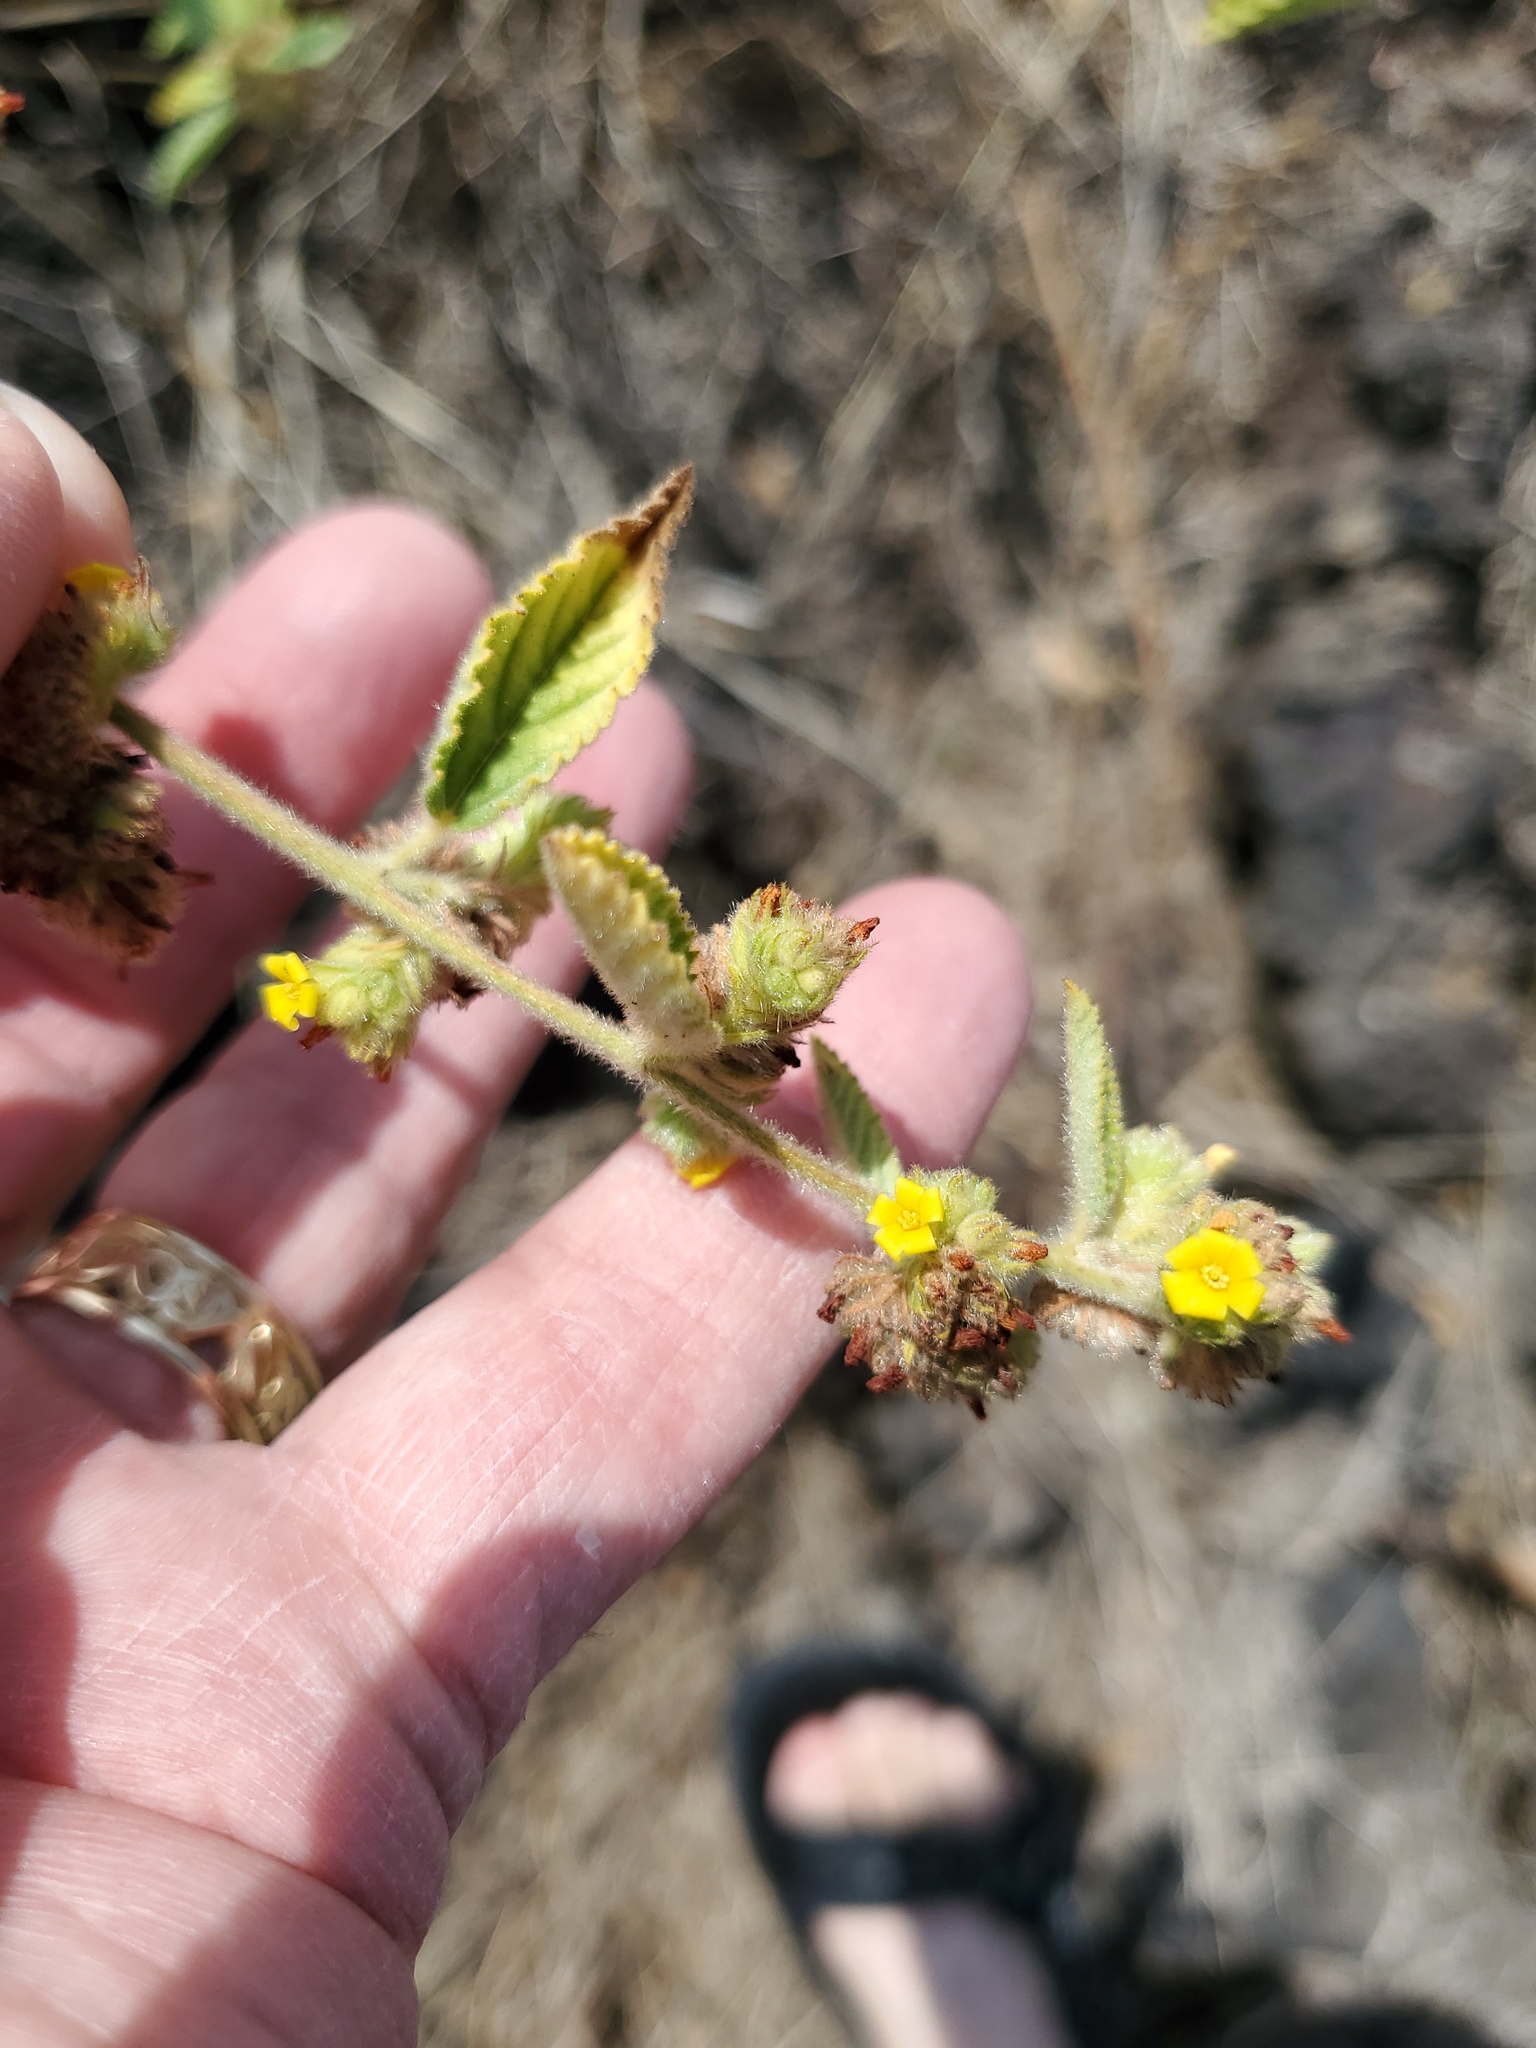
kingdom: Plantae
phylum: Tracheophyta
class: Magnoliopsida
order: Malvales
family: Malvaceae
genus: Waltheria
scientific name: Waltheria indica
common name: Leather-coat
